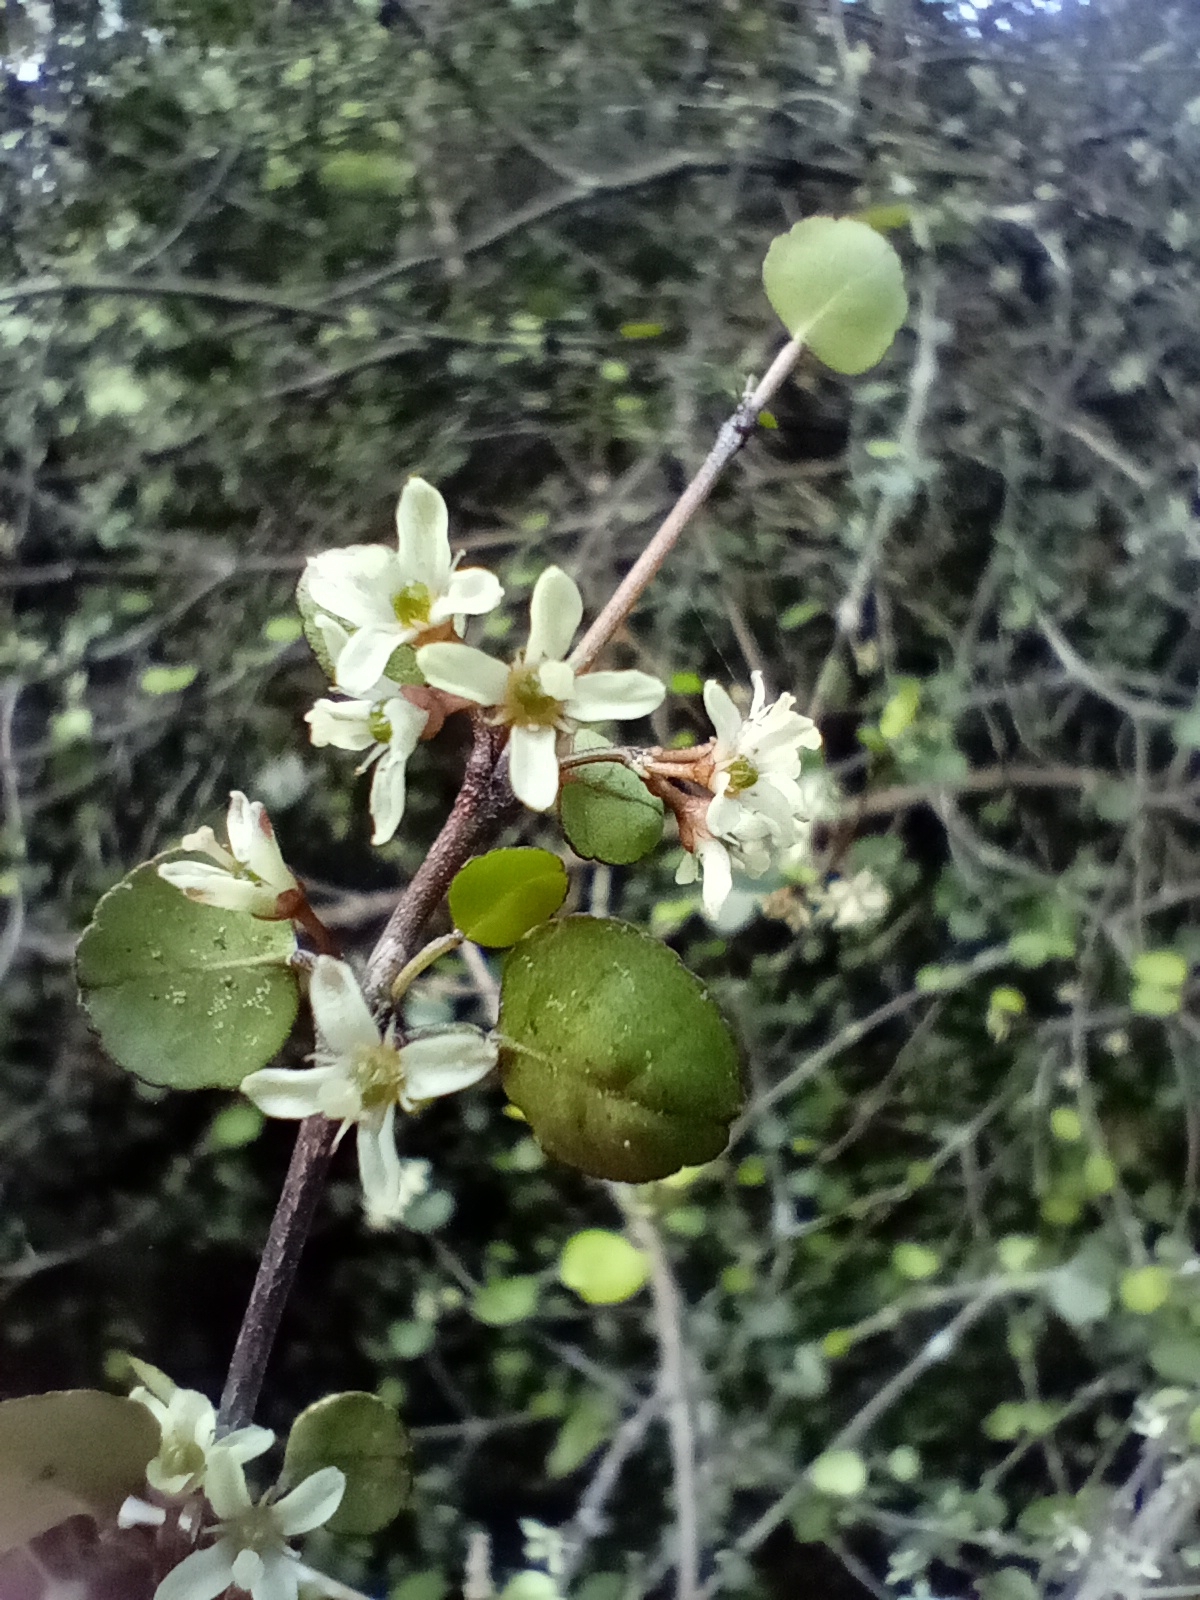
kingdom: Plantae
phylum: Tracheophyta
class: Magnoliopsida
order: Sapindales
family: Rutaceae
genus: Melicope
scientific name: Melicope simplex
